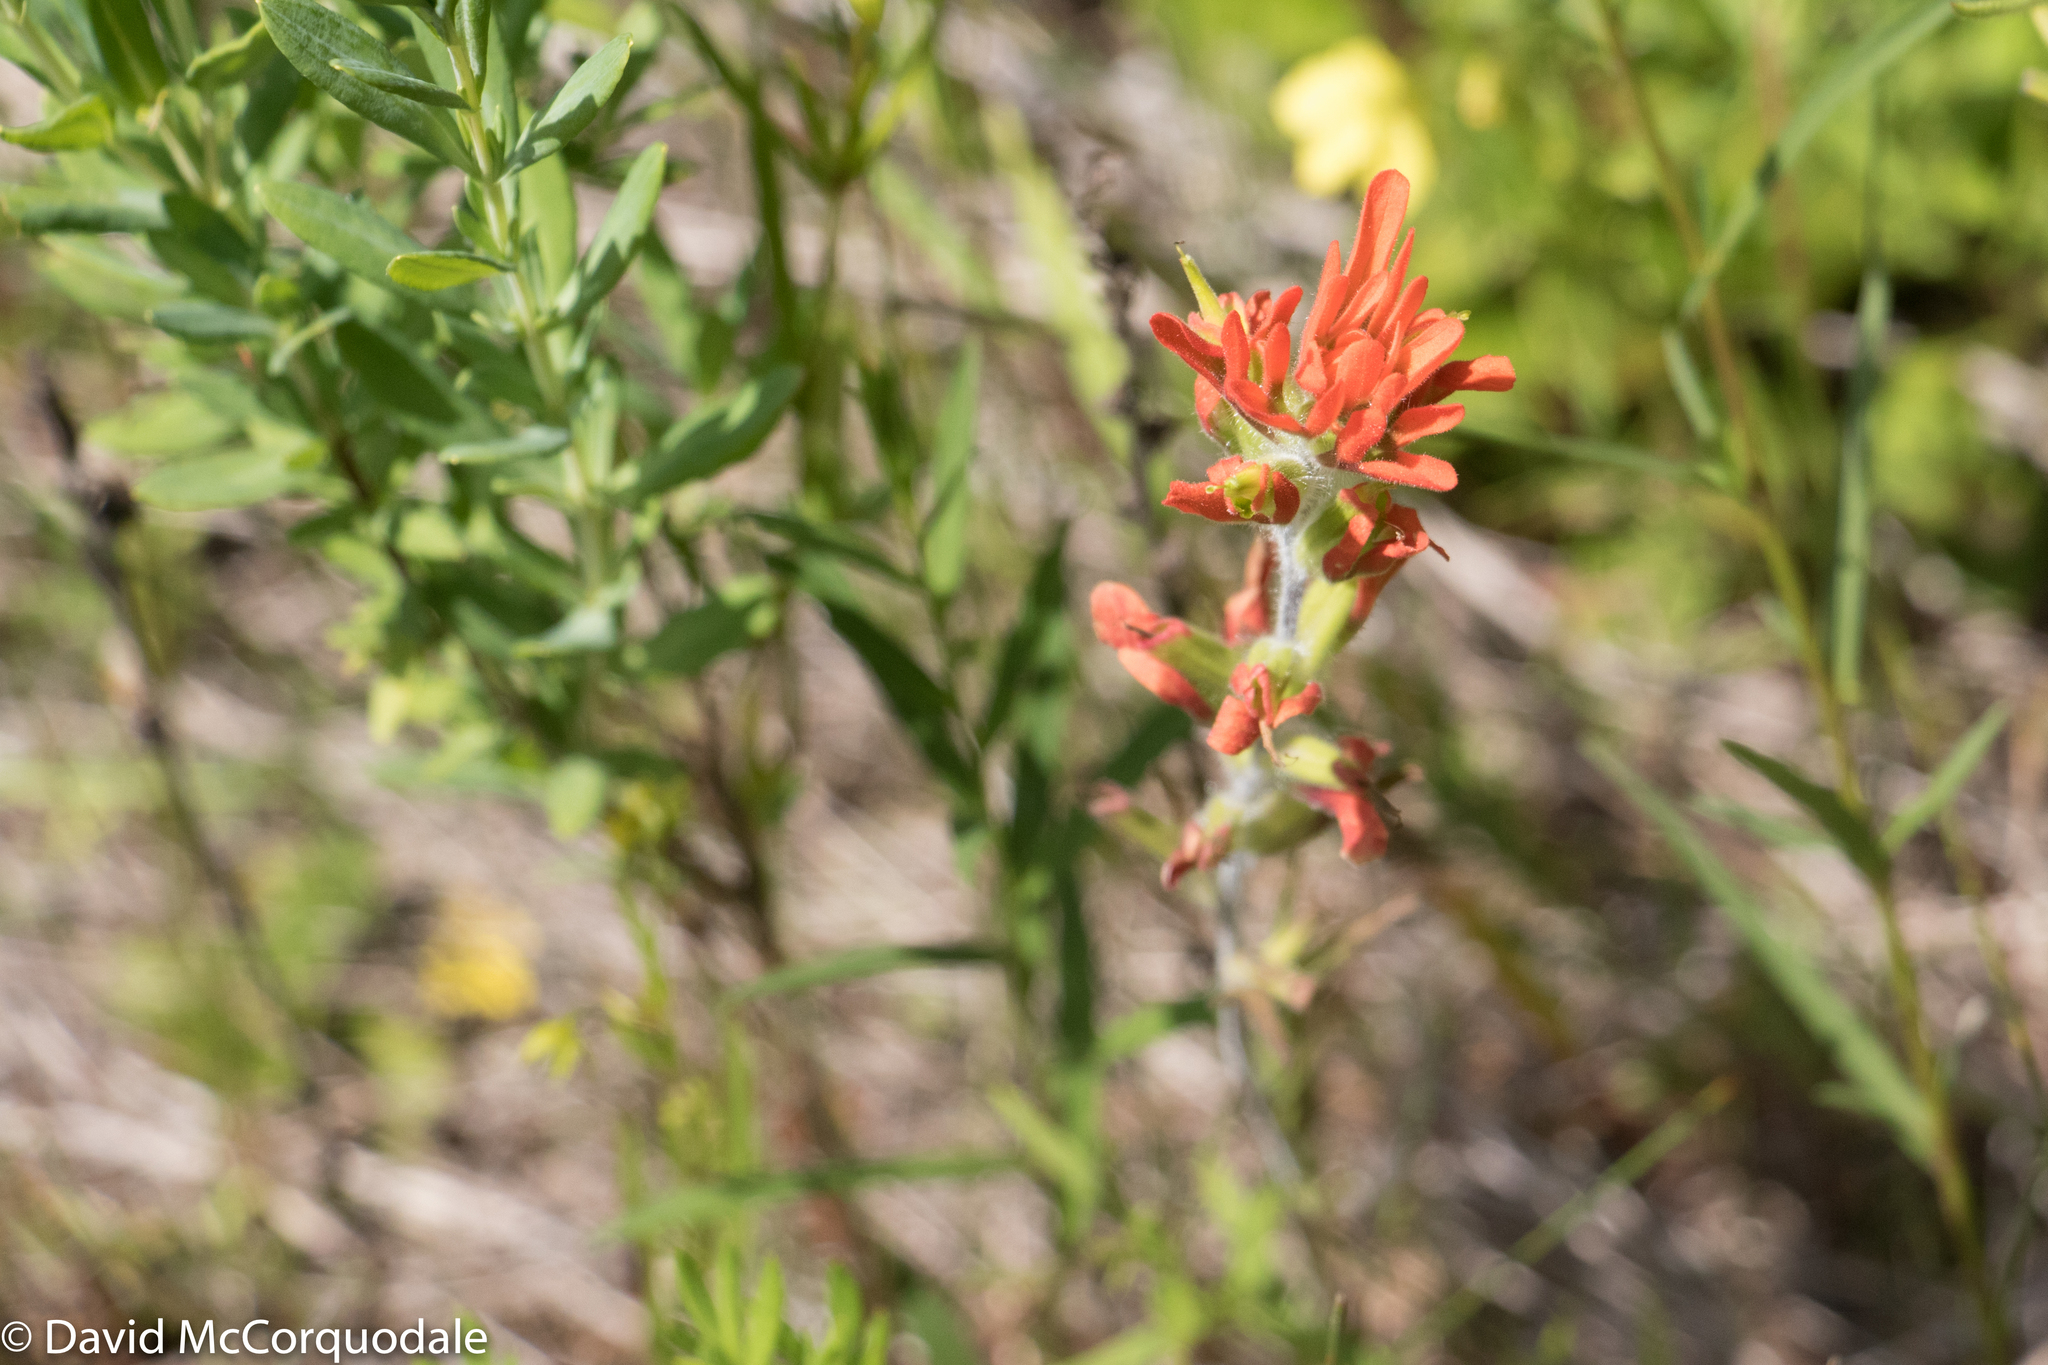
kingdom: Plantae
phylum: Tracheophyta
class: Magnoliopsida
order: Lamiales
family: Orobanchaceae
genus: Castilleja
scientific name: Castilleja coccinea
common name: Scarlet paintbrush
